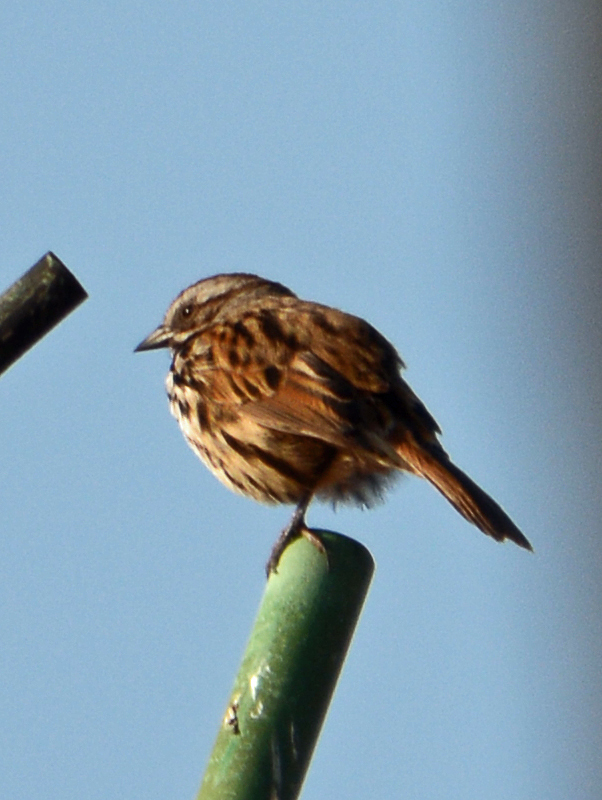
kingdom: Animalia
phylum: Chordata
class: Aves
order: Passeriformes
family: Passerellidae
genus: Melospiza
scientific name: Melospiza melodia
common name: Song sparrow
